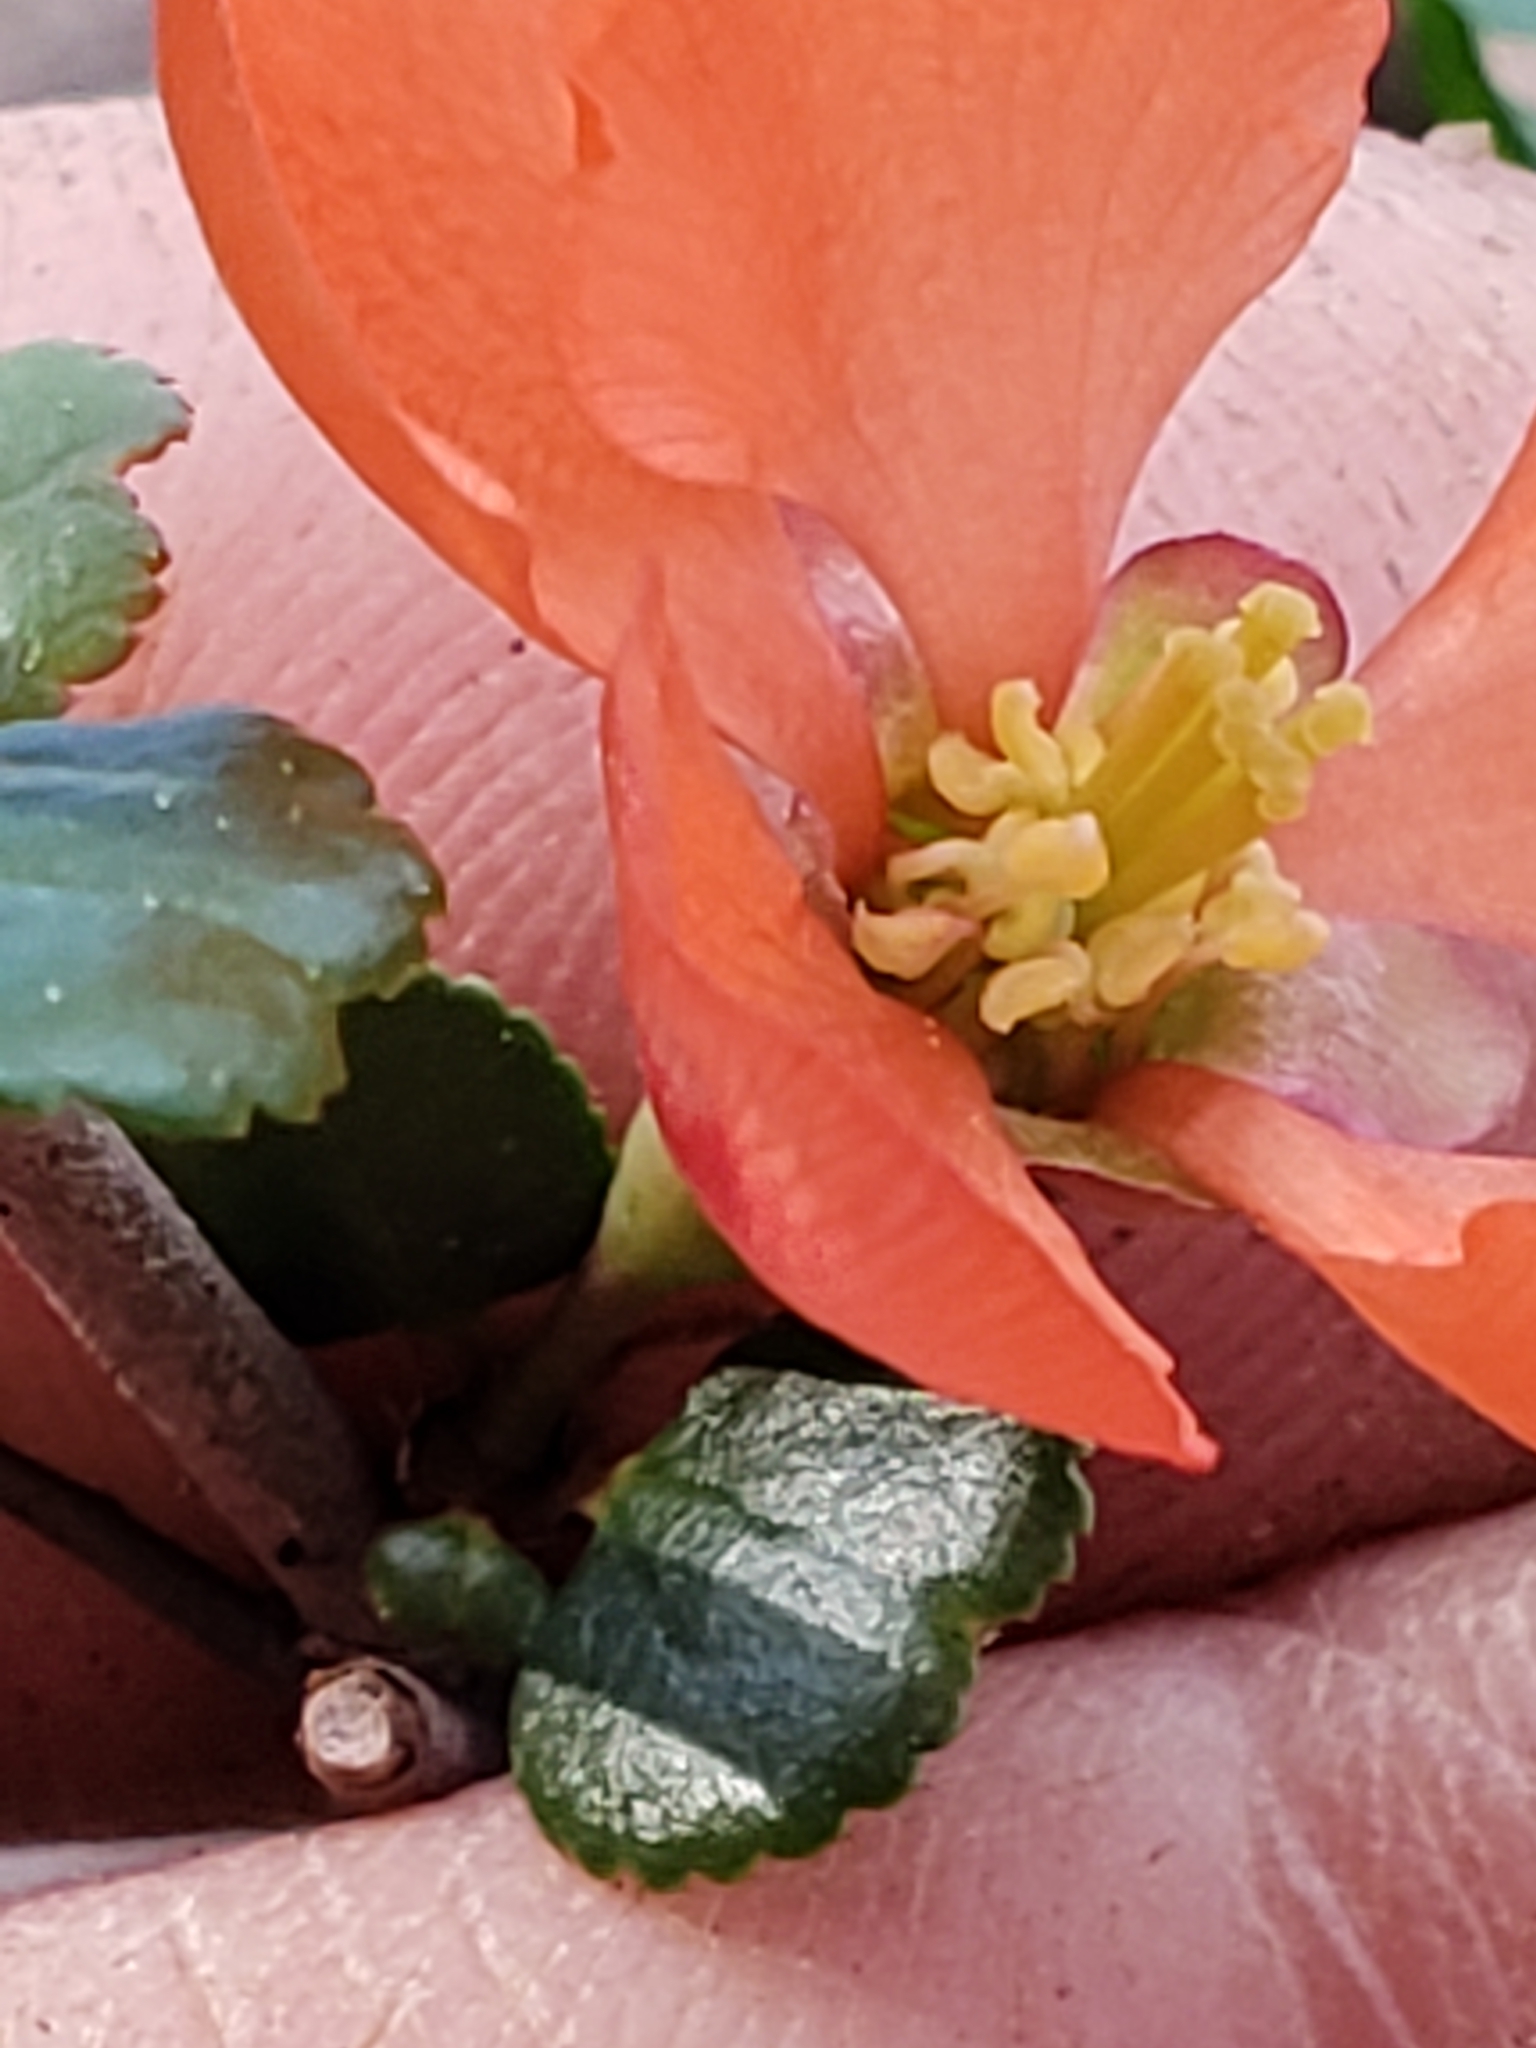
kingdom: Plantae
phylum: Tracheophyta
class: Magnoliopsida
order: Rosales
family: Rosaceae
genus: Chaenomeles
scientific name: Chaenomeles japonica
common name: Japanese quince
